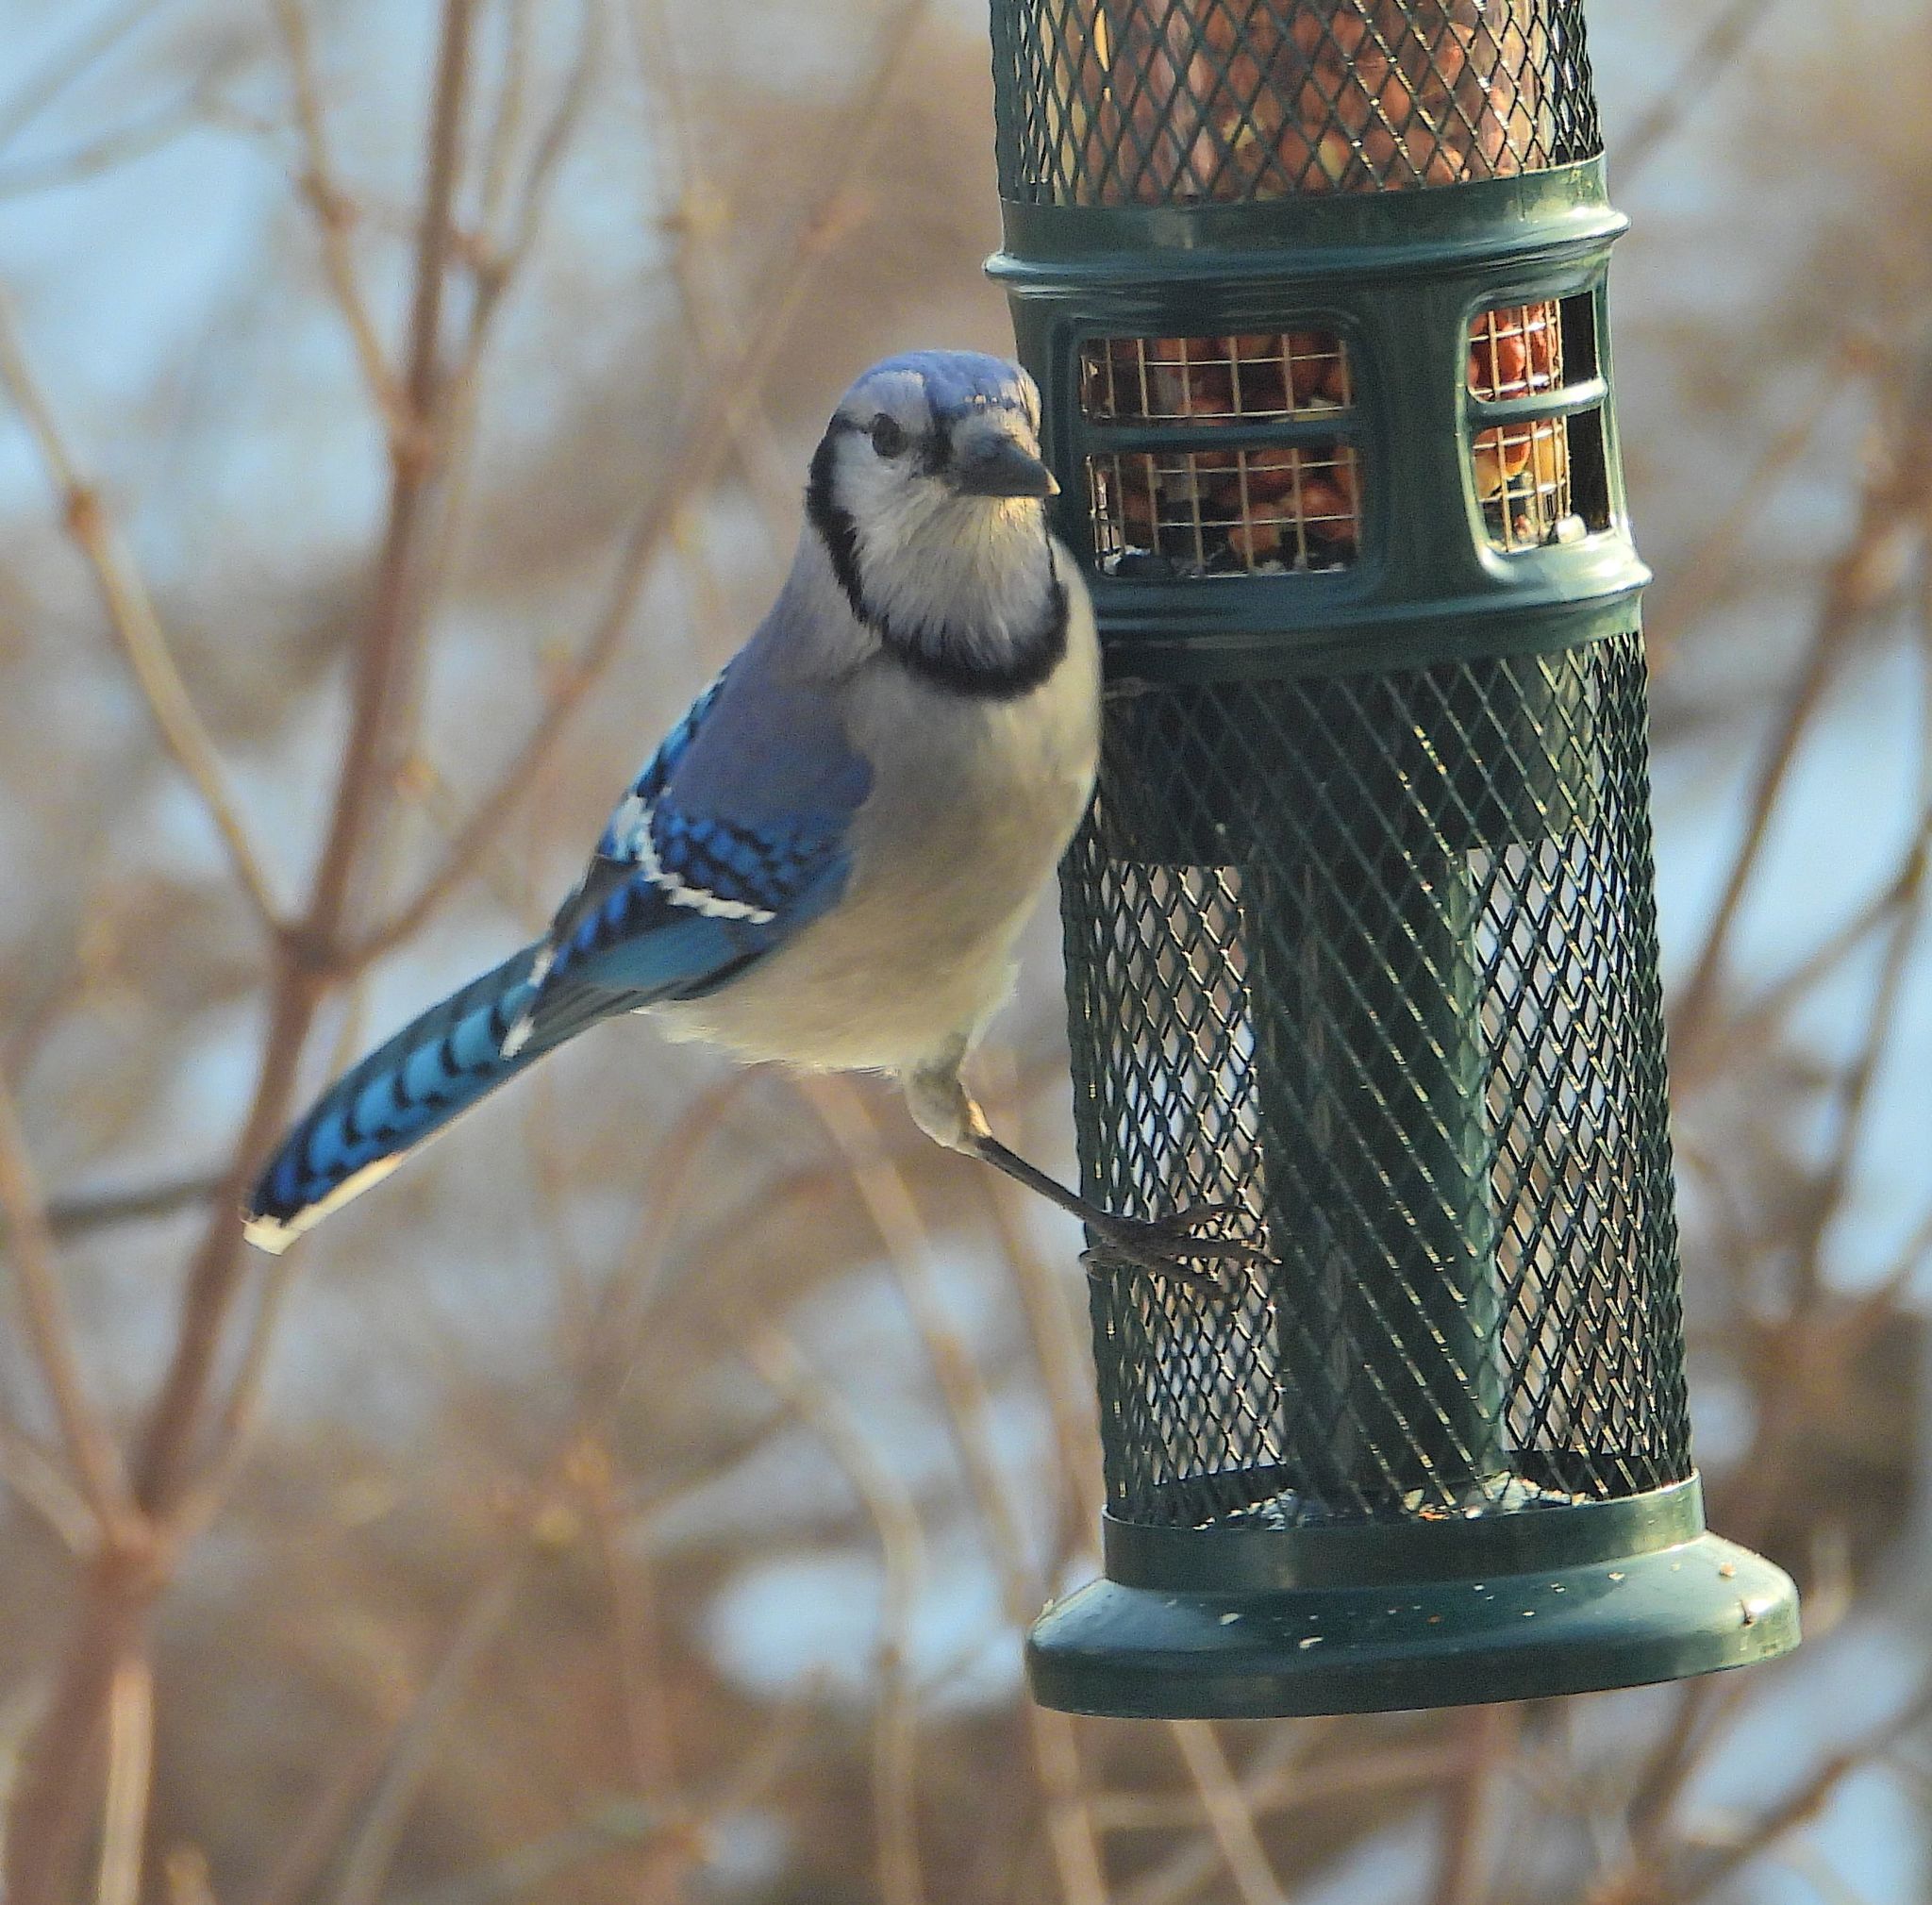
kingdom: Animalia
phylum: Chordata
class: Aves
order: Passeriformes
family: Corvidae
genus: Cyanocitta
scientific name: Cyanocitta cristata
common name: Blue jay
